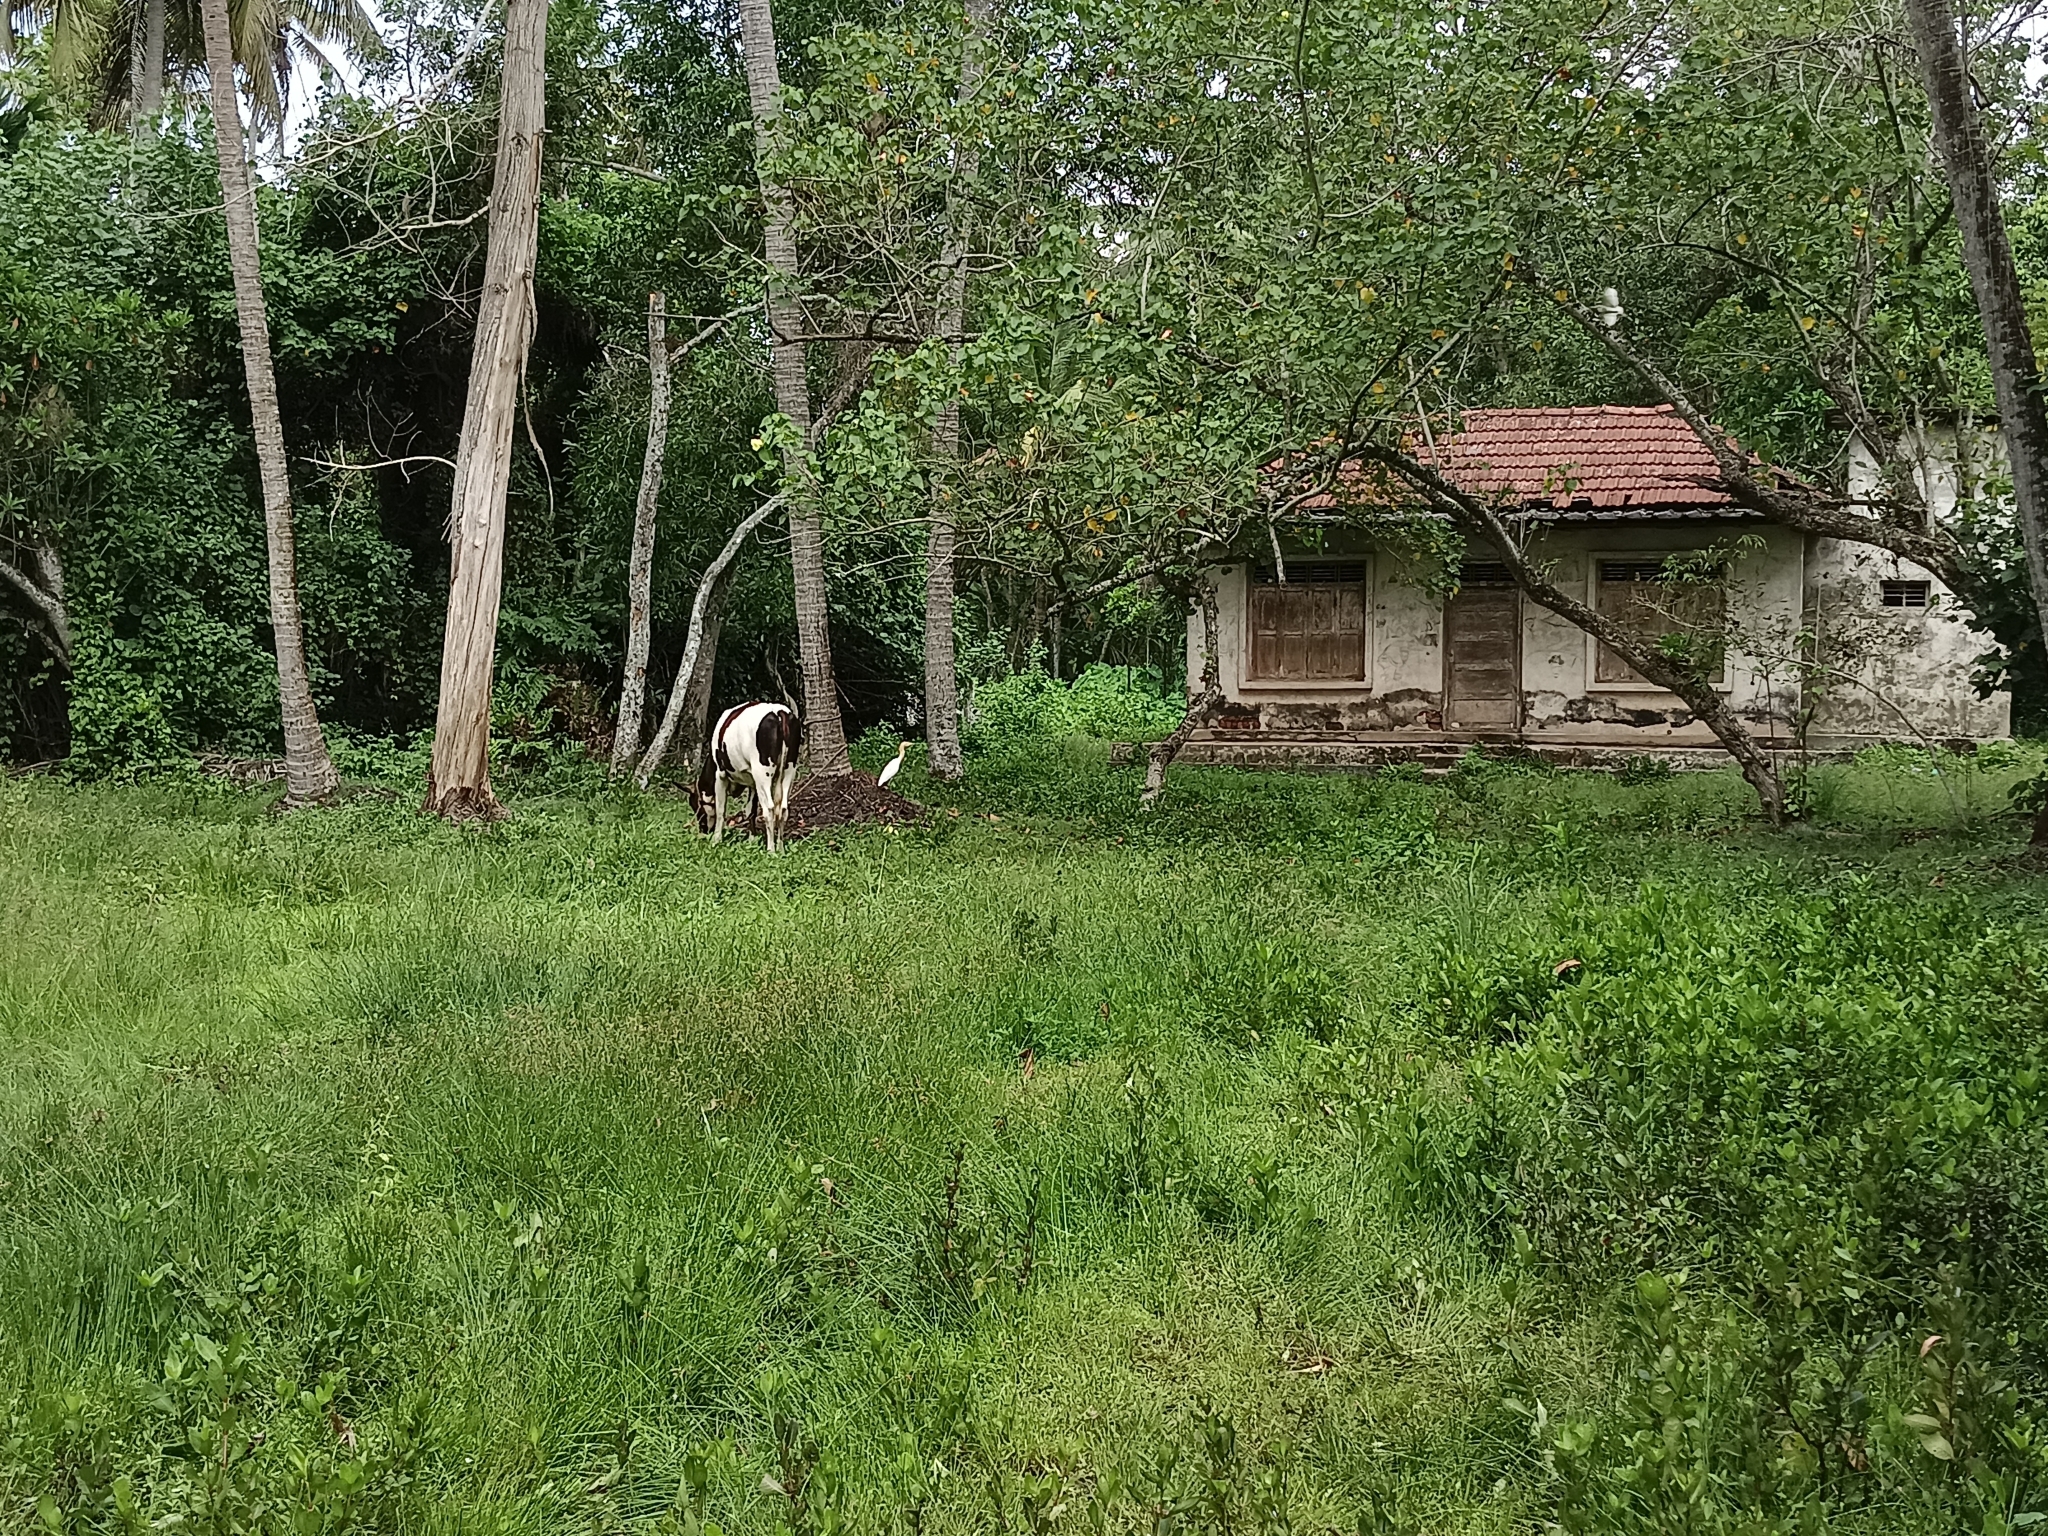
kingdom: Animalia
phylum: Chordata
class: Aves
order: Pelecaniformes
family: Ardeidae
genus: Bubulcus
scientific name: Bubulcus coromandus
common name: Eastern cattle egret
